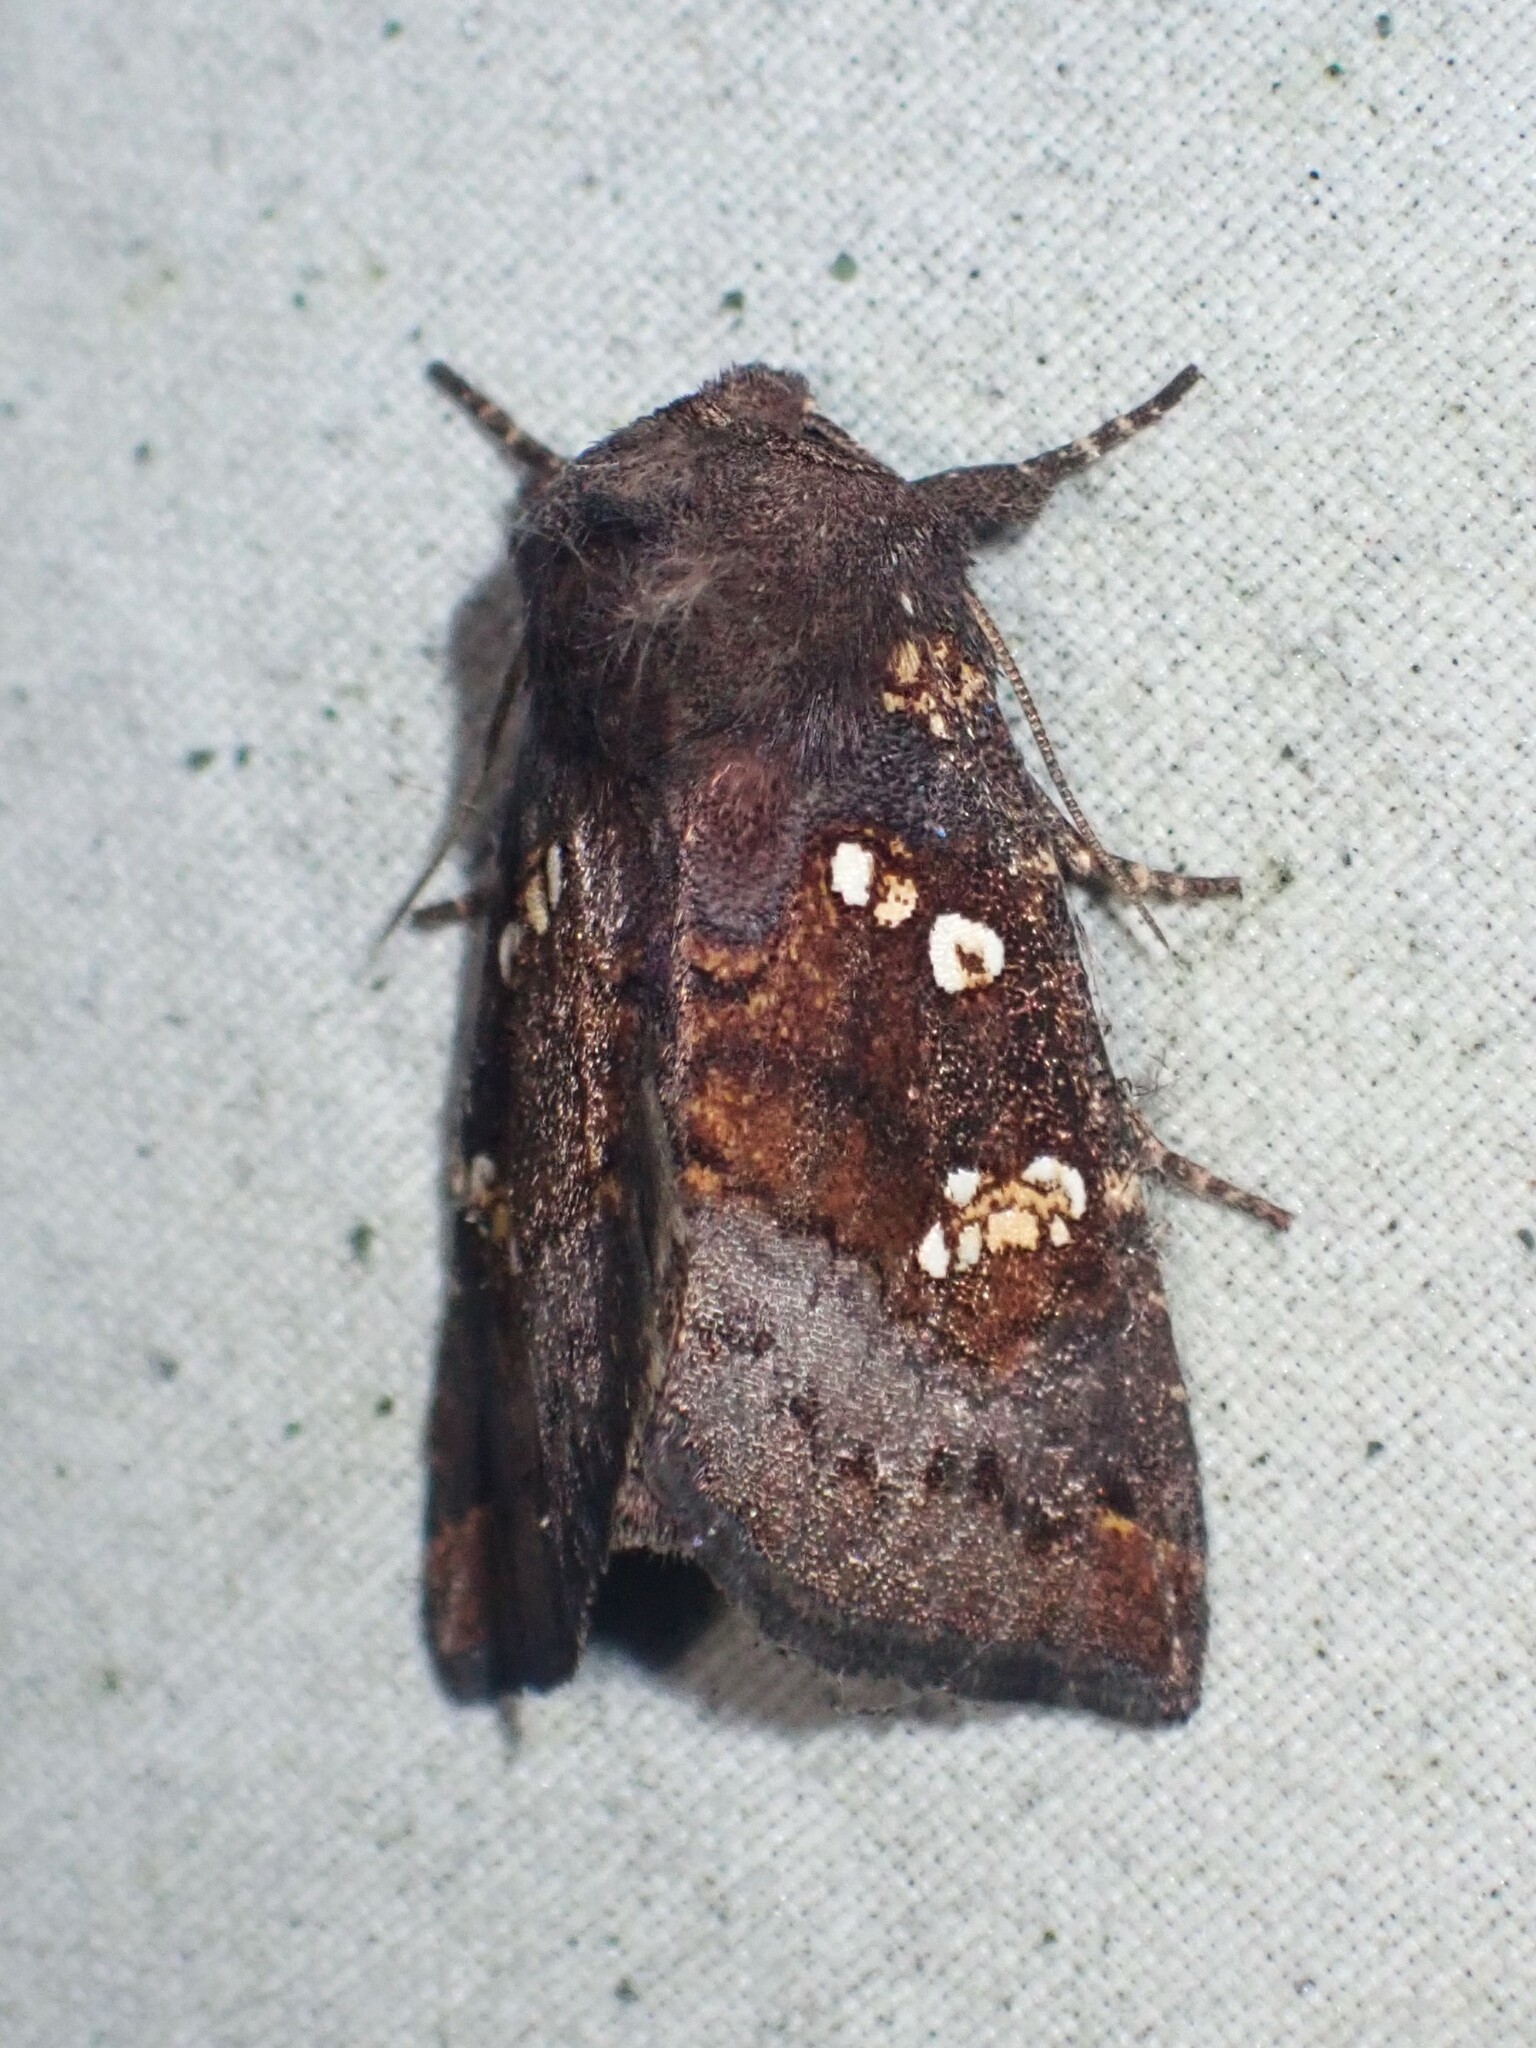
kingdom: Animalia
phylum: Arthropoda
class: Insecta
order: Lepidoptera
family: Noctuidae
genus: Papaipema
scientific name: Papaipema unimoda
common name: Meadow rue borer moth
